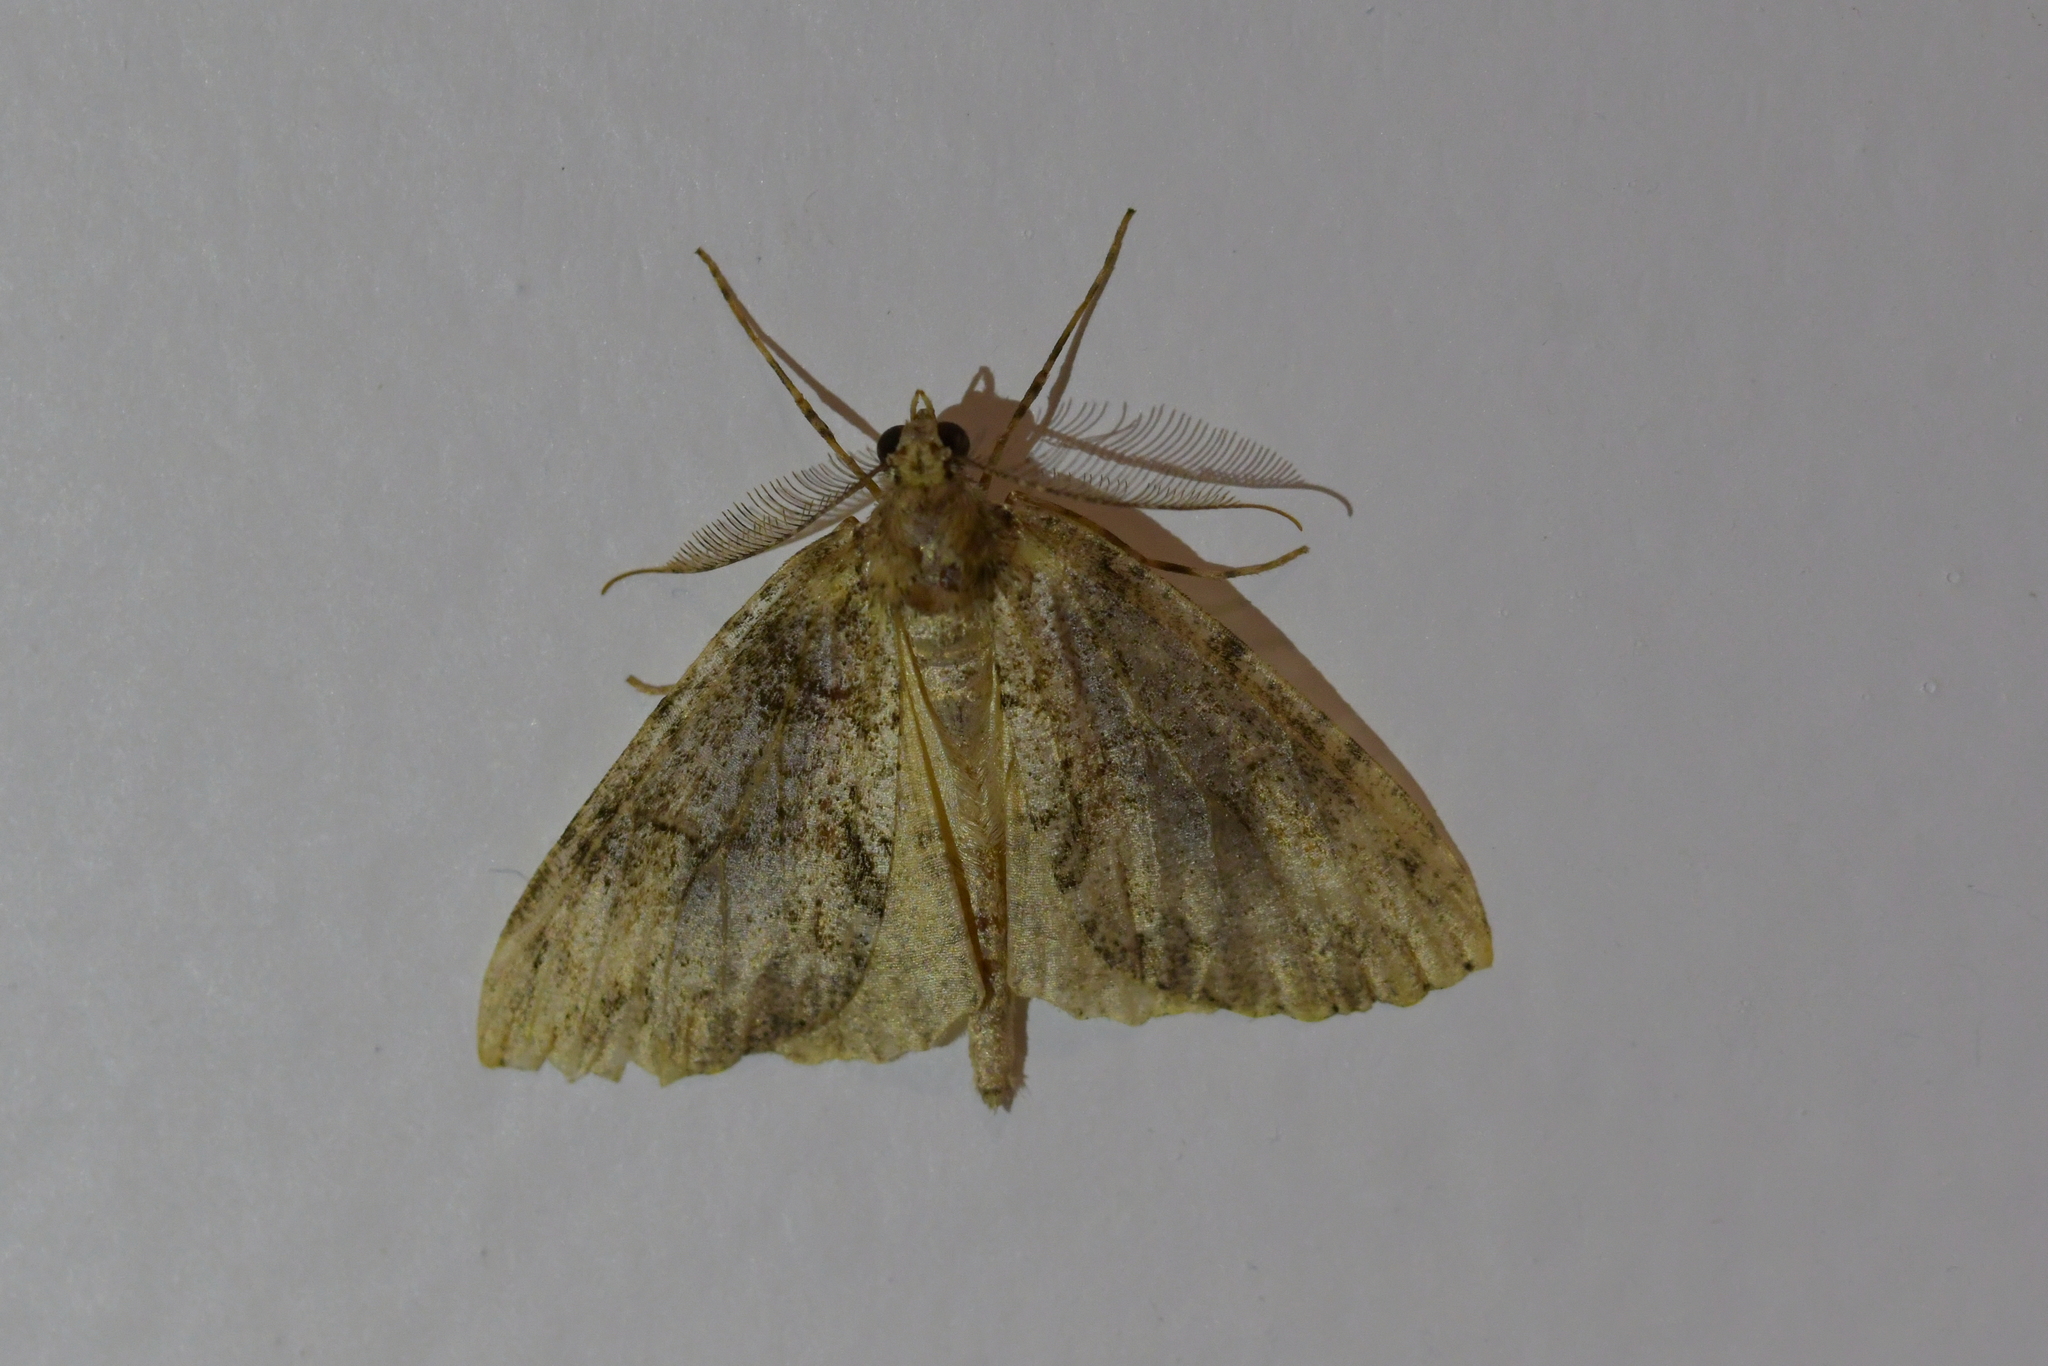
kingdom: Animalia
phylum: Arthropoda
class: Insecta
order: Lepidoptera
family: Geometridae
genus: Pseudocoremia
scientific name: Pseudocoremia suavis
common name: Common forest looper
